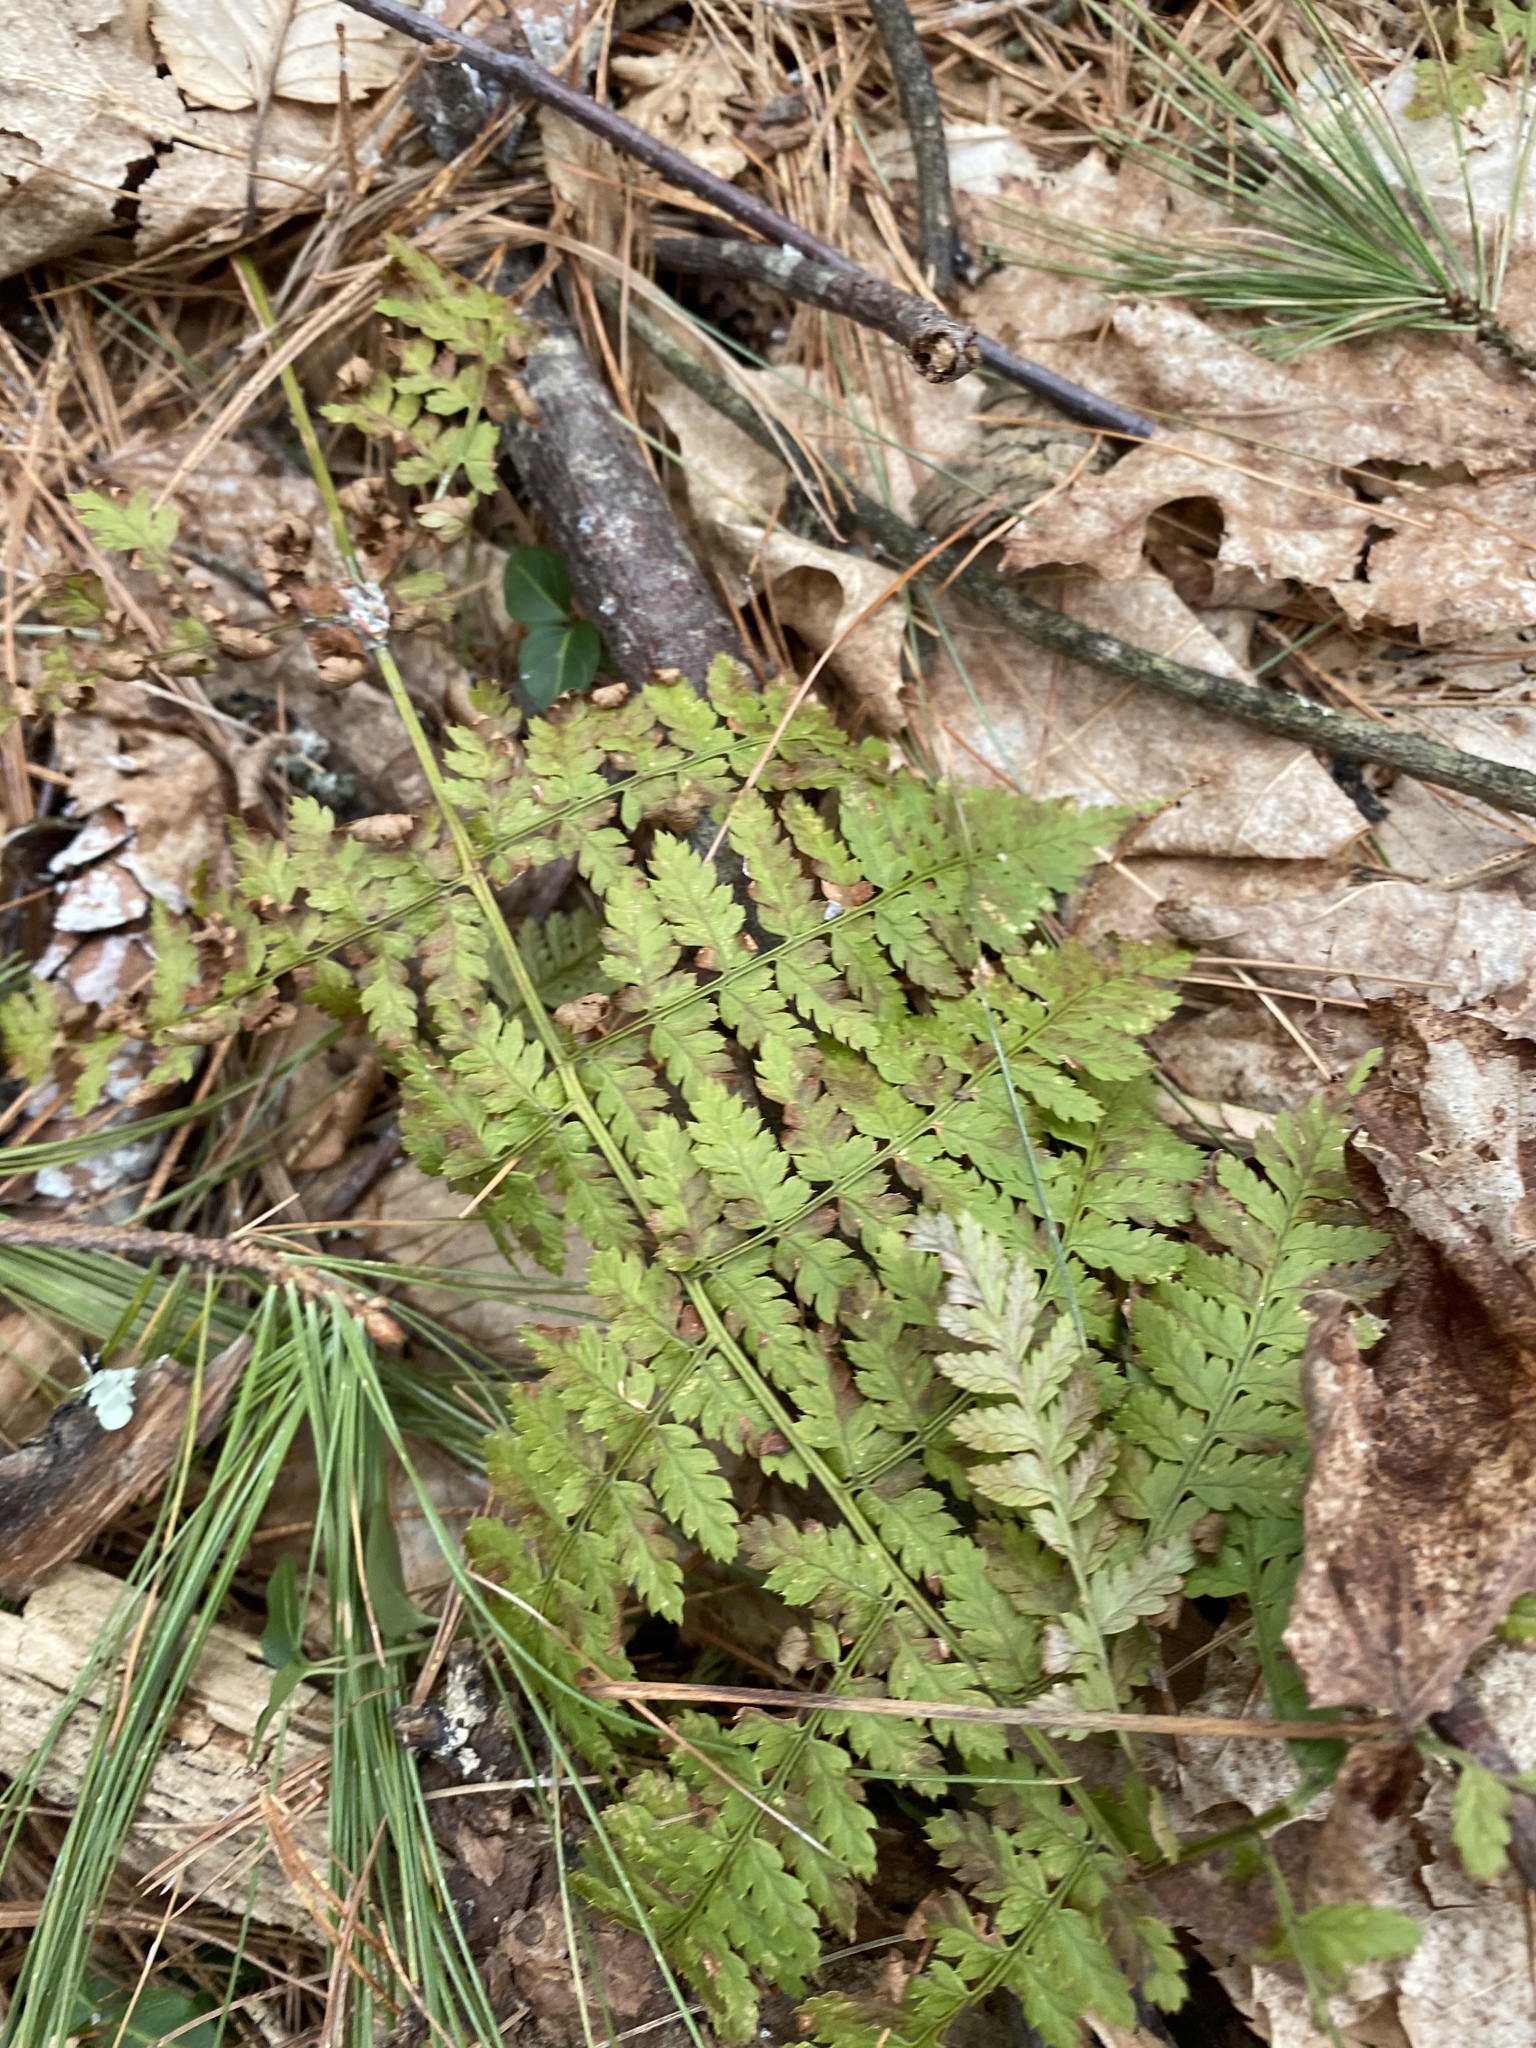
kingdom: Plantae
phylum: Tracheophyta
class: Polypodiopsida
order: Polypodiales
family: Dryopteridaceae
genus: Dryopteris
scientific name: Dryopteris intermedia
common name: Evergreen wood fern
